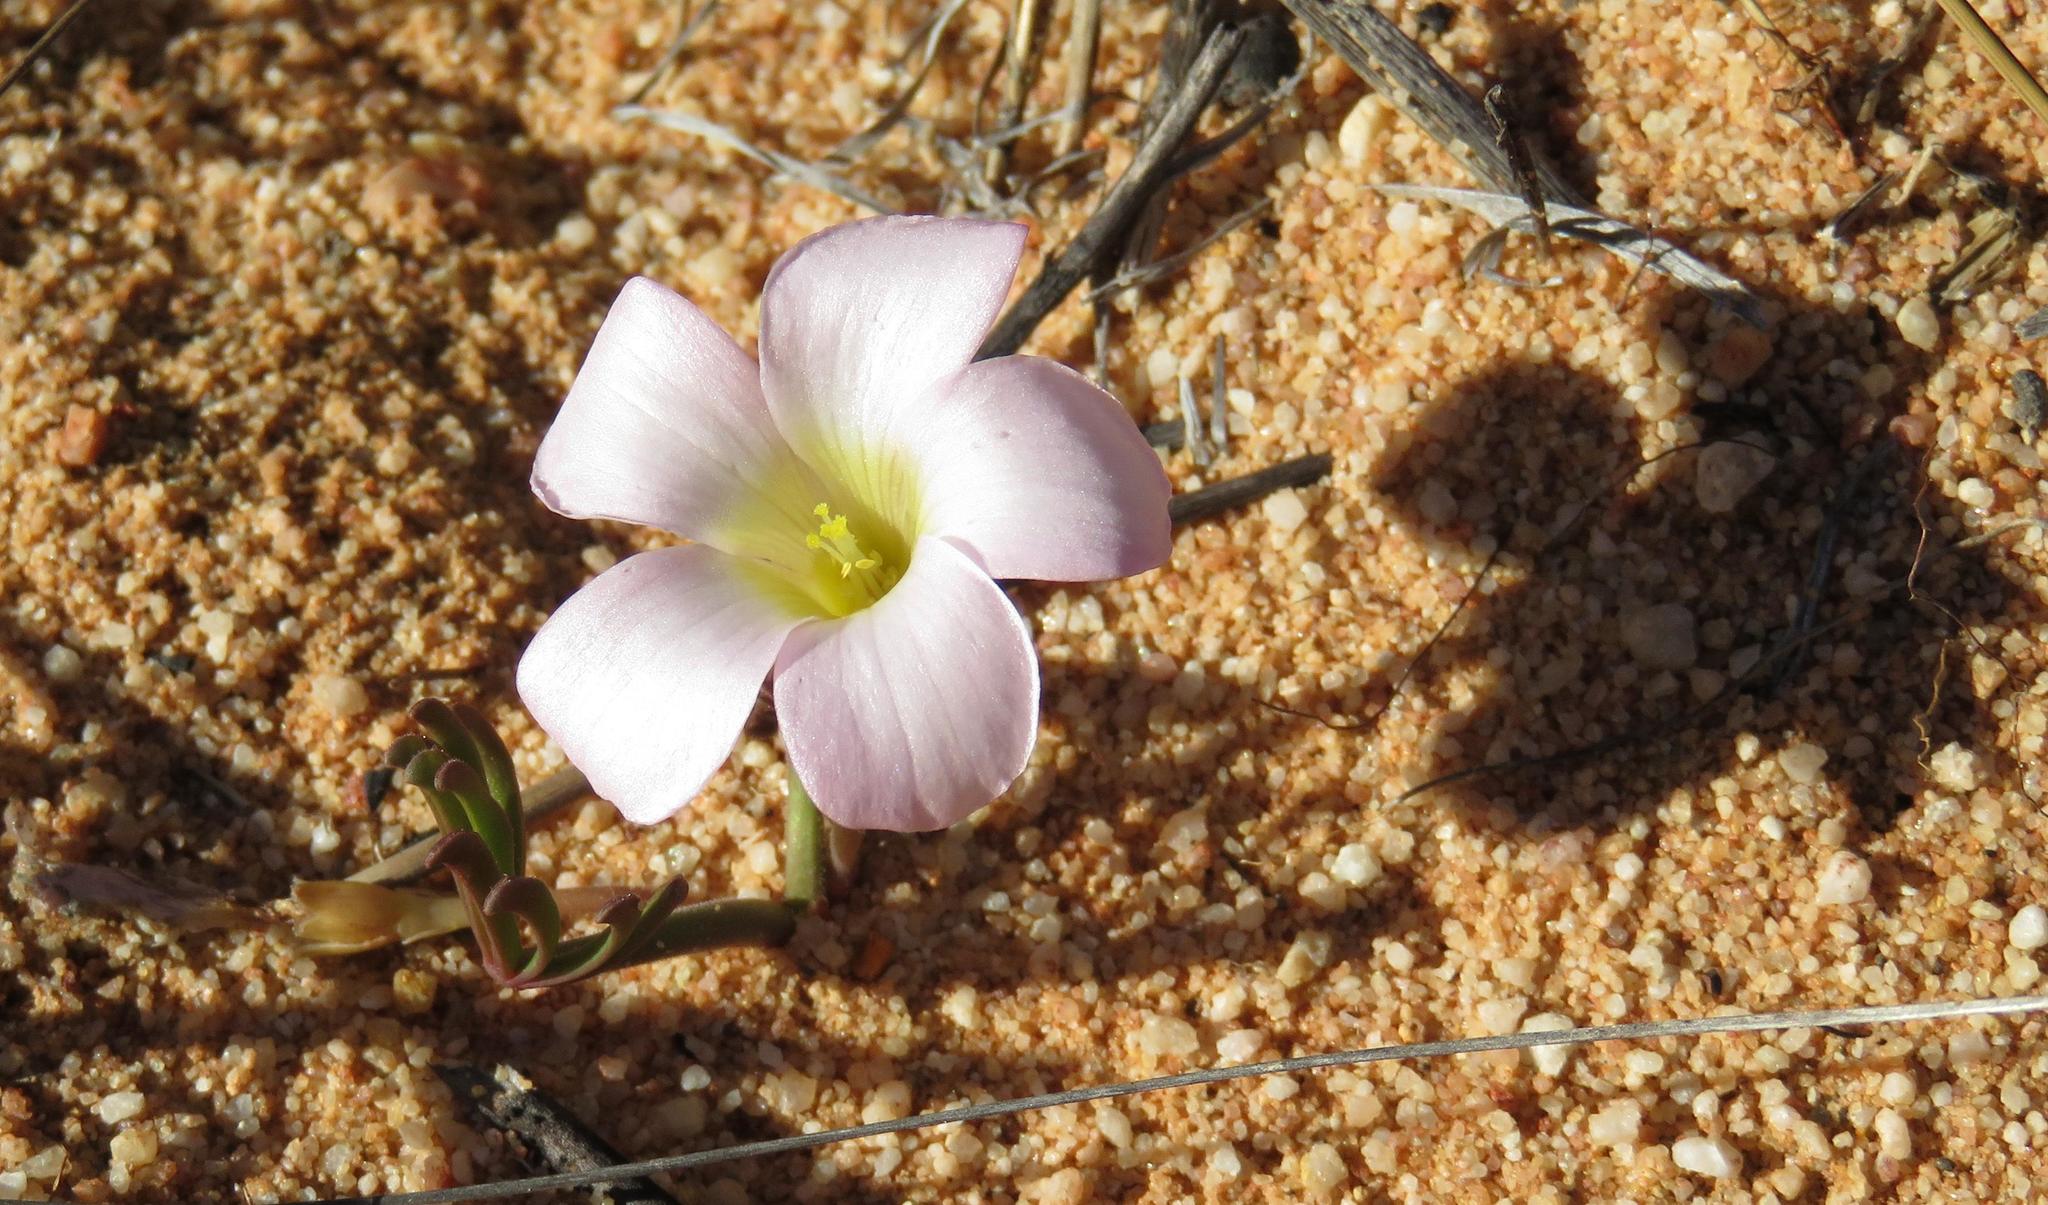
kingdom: Plantae
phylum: Tracheophyta
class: Magnoliopsida
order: Oxalidales
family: Oxalidaceae
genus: Oxalis
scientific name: Oxalis flava
